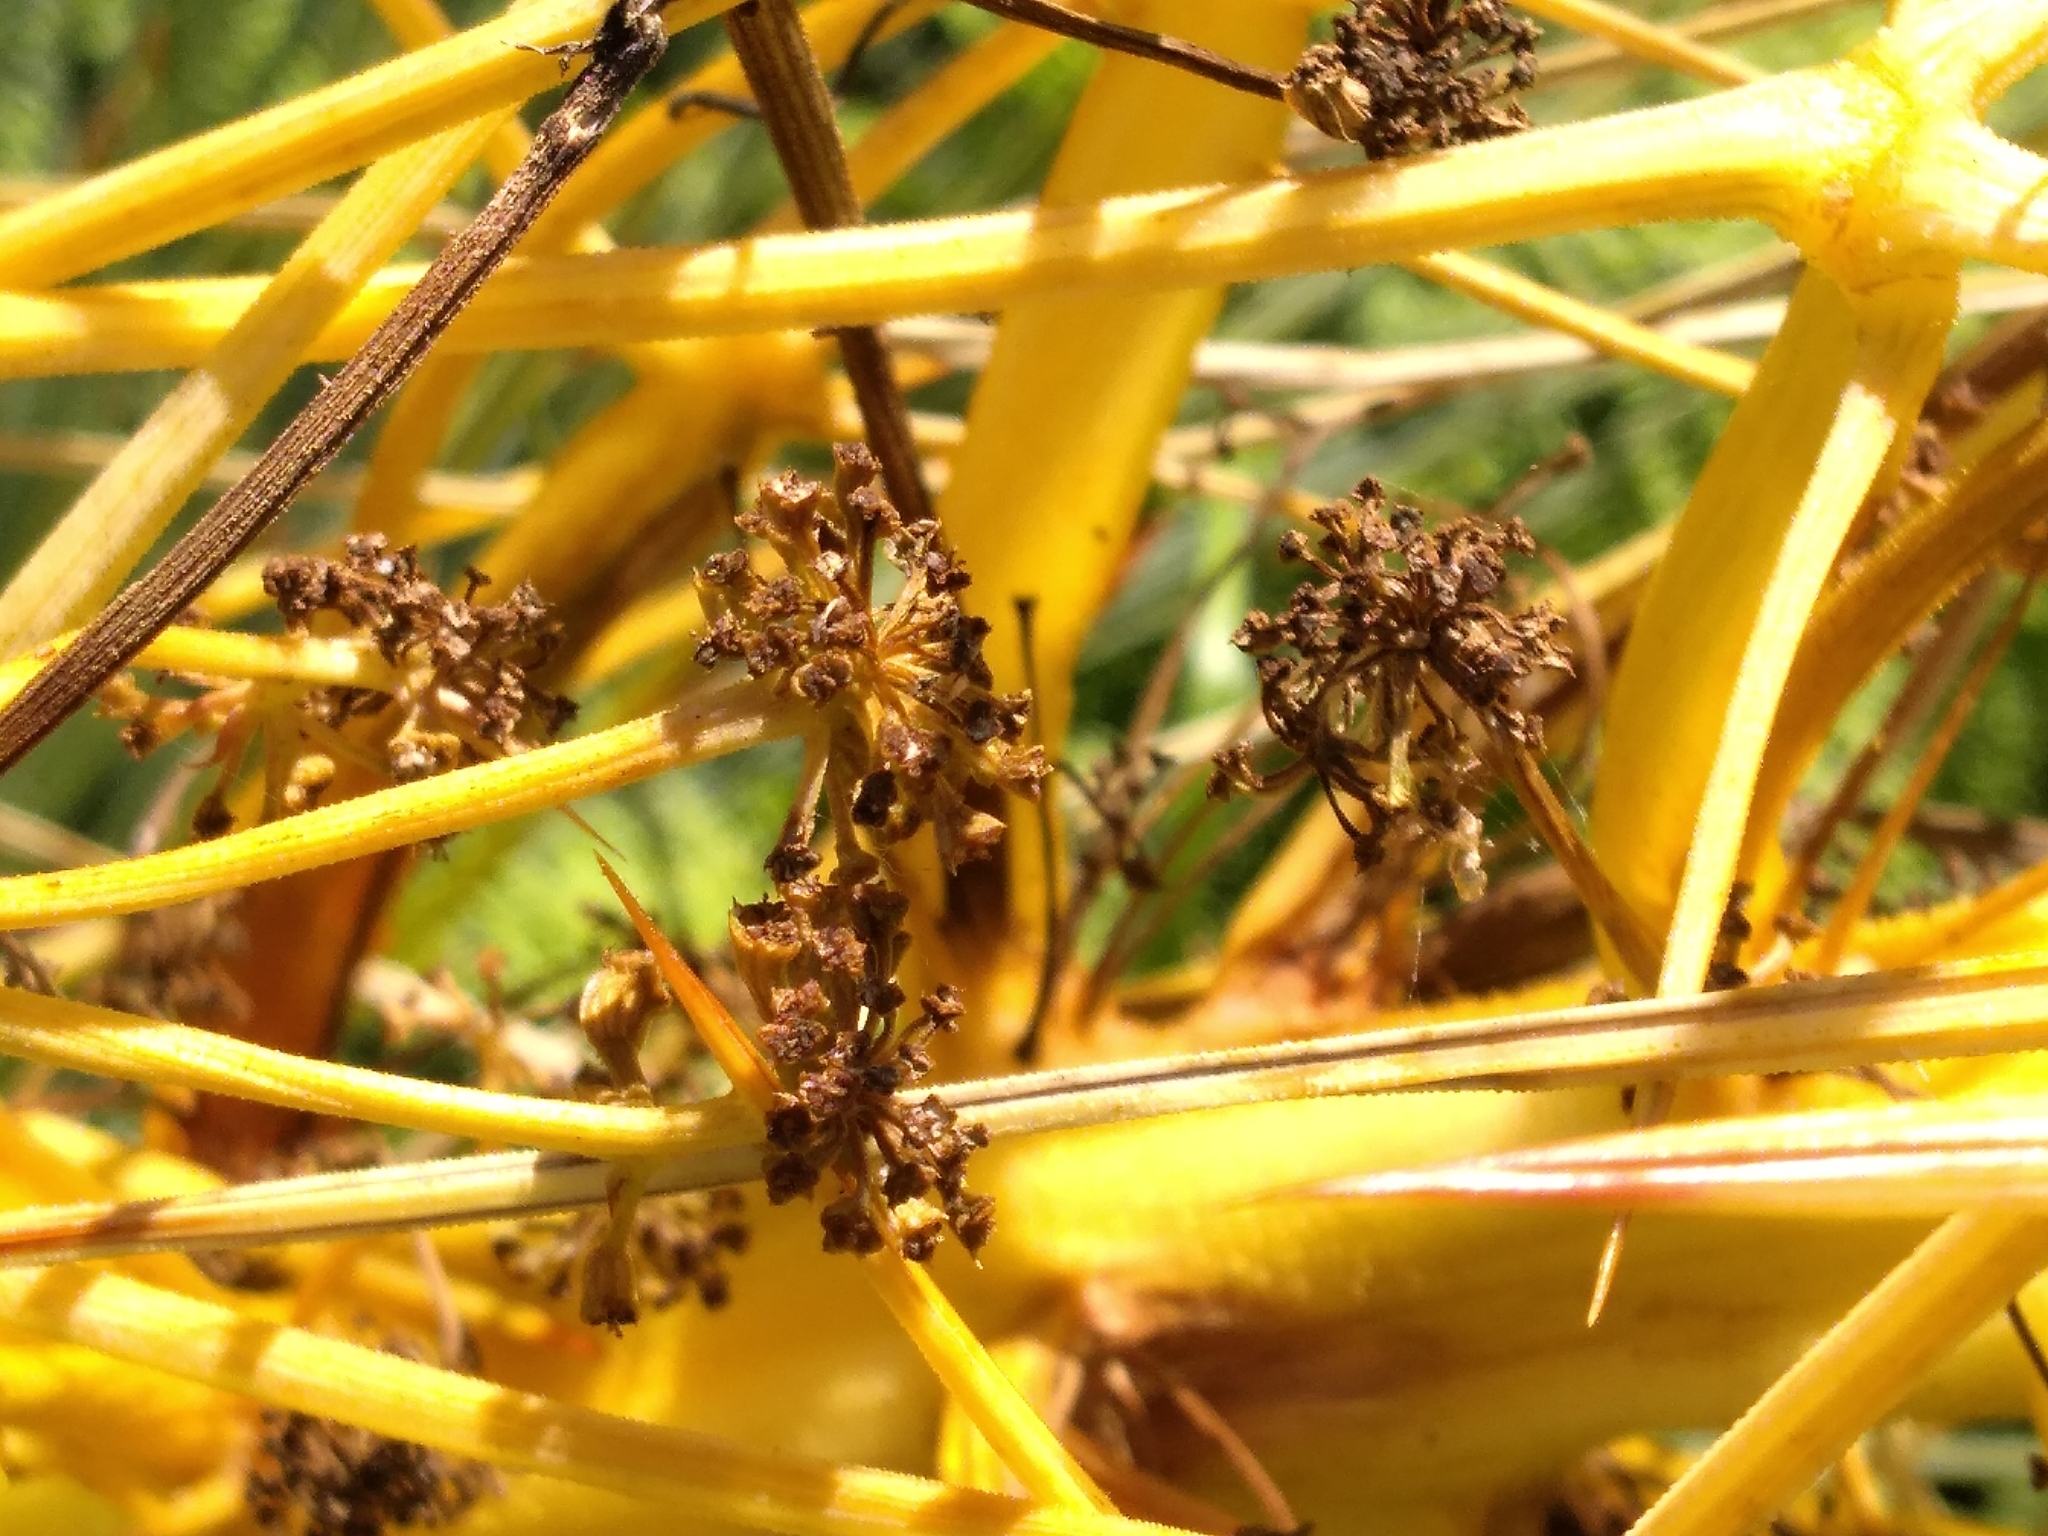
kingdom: Plantae
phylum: Tracheophyta
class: Magnoliopsida
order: Apiales
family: Apiaceae
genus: Aciphylla
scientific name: Aciphylla squarrosa
